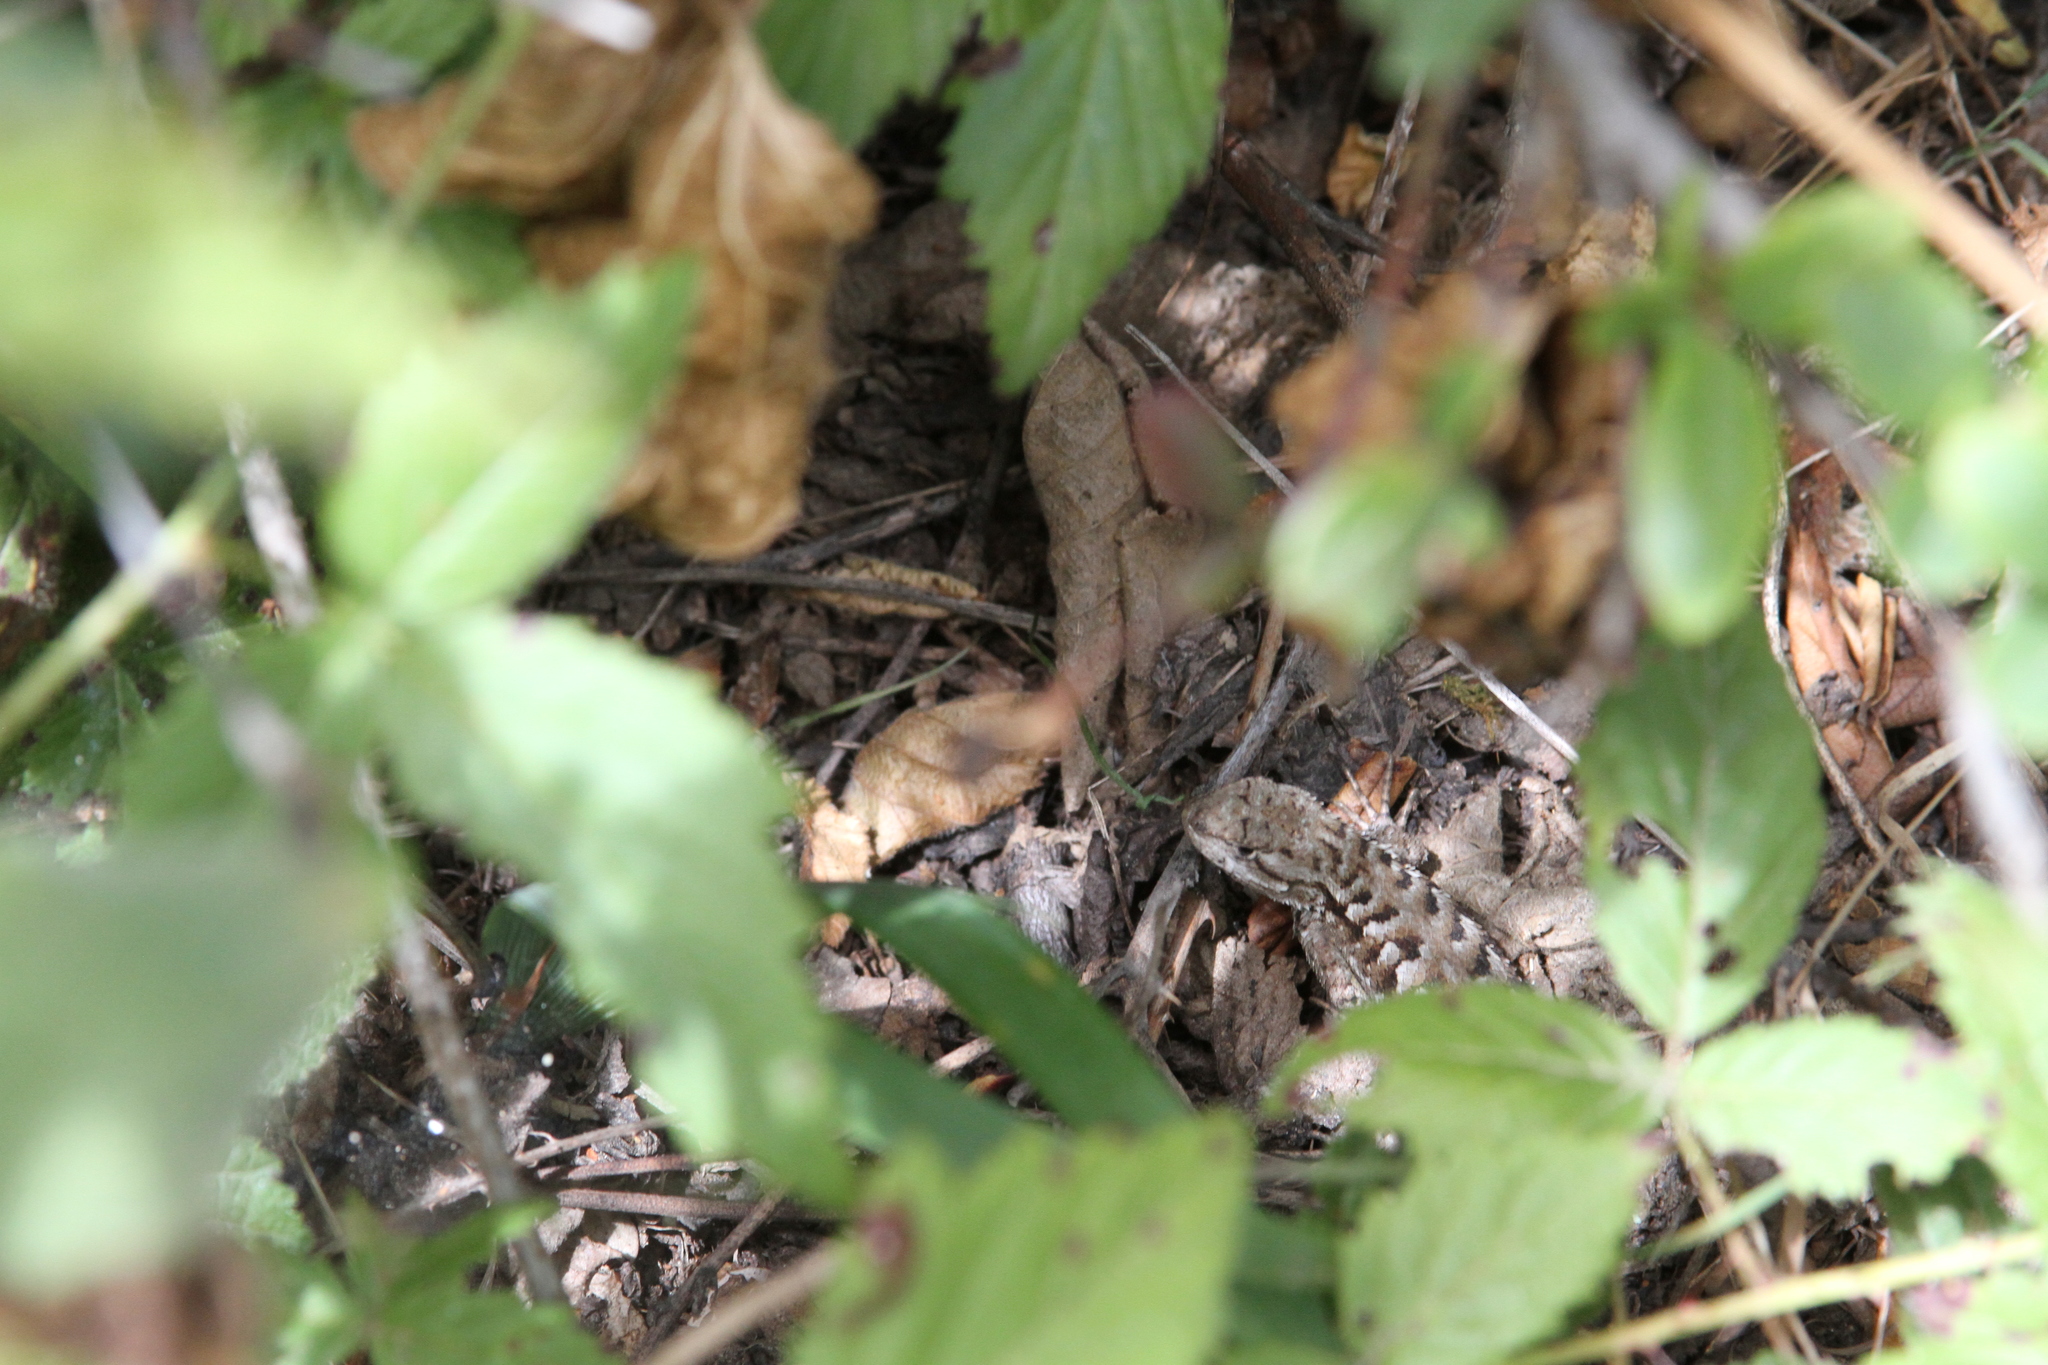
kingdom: Animalia
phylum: Chordata
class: Squamata
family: Phrynosomatidae
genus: Sceloporus
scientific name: Sceloporus occidentalis
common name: Western fence lizard
